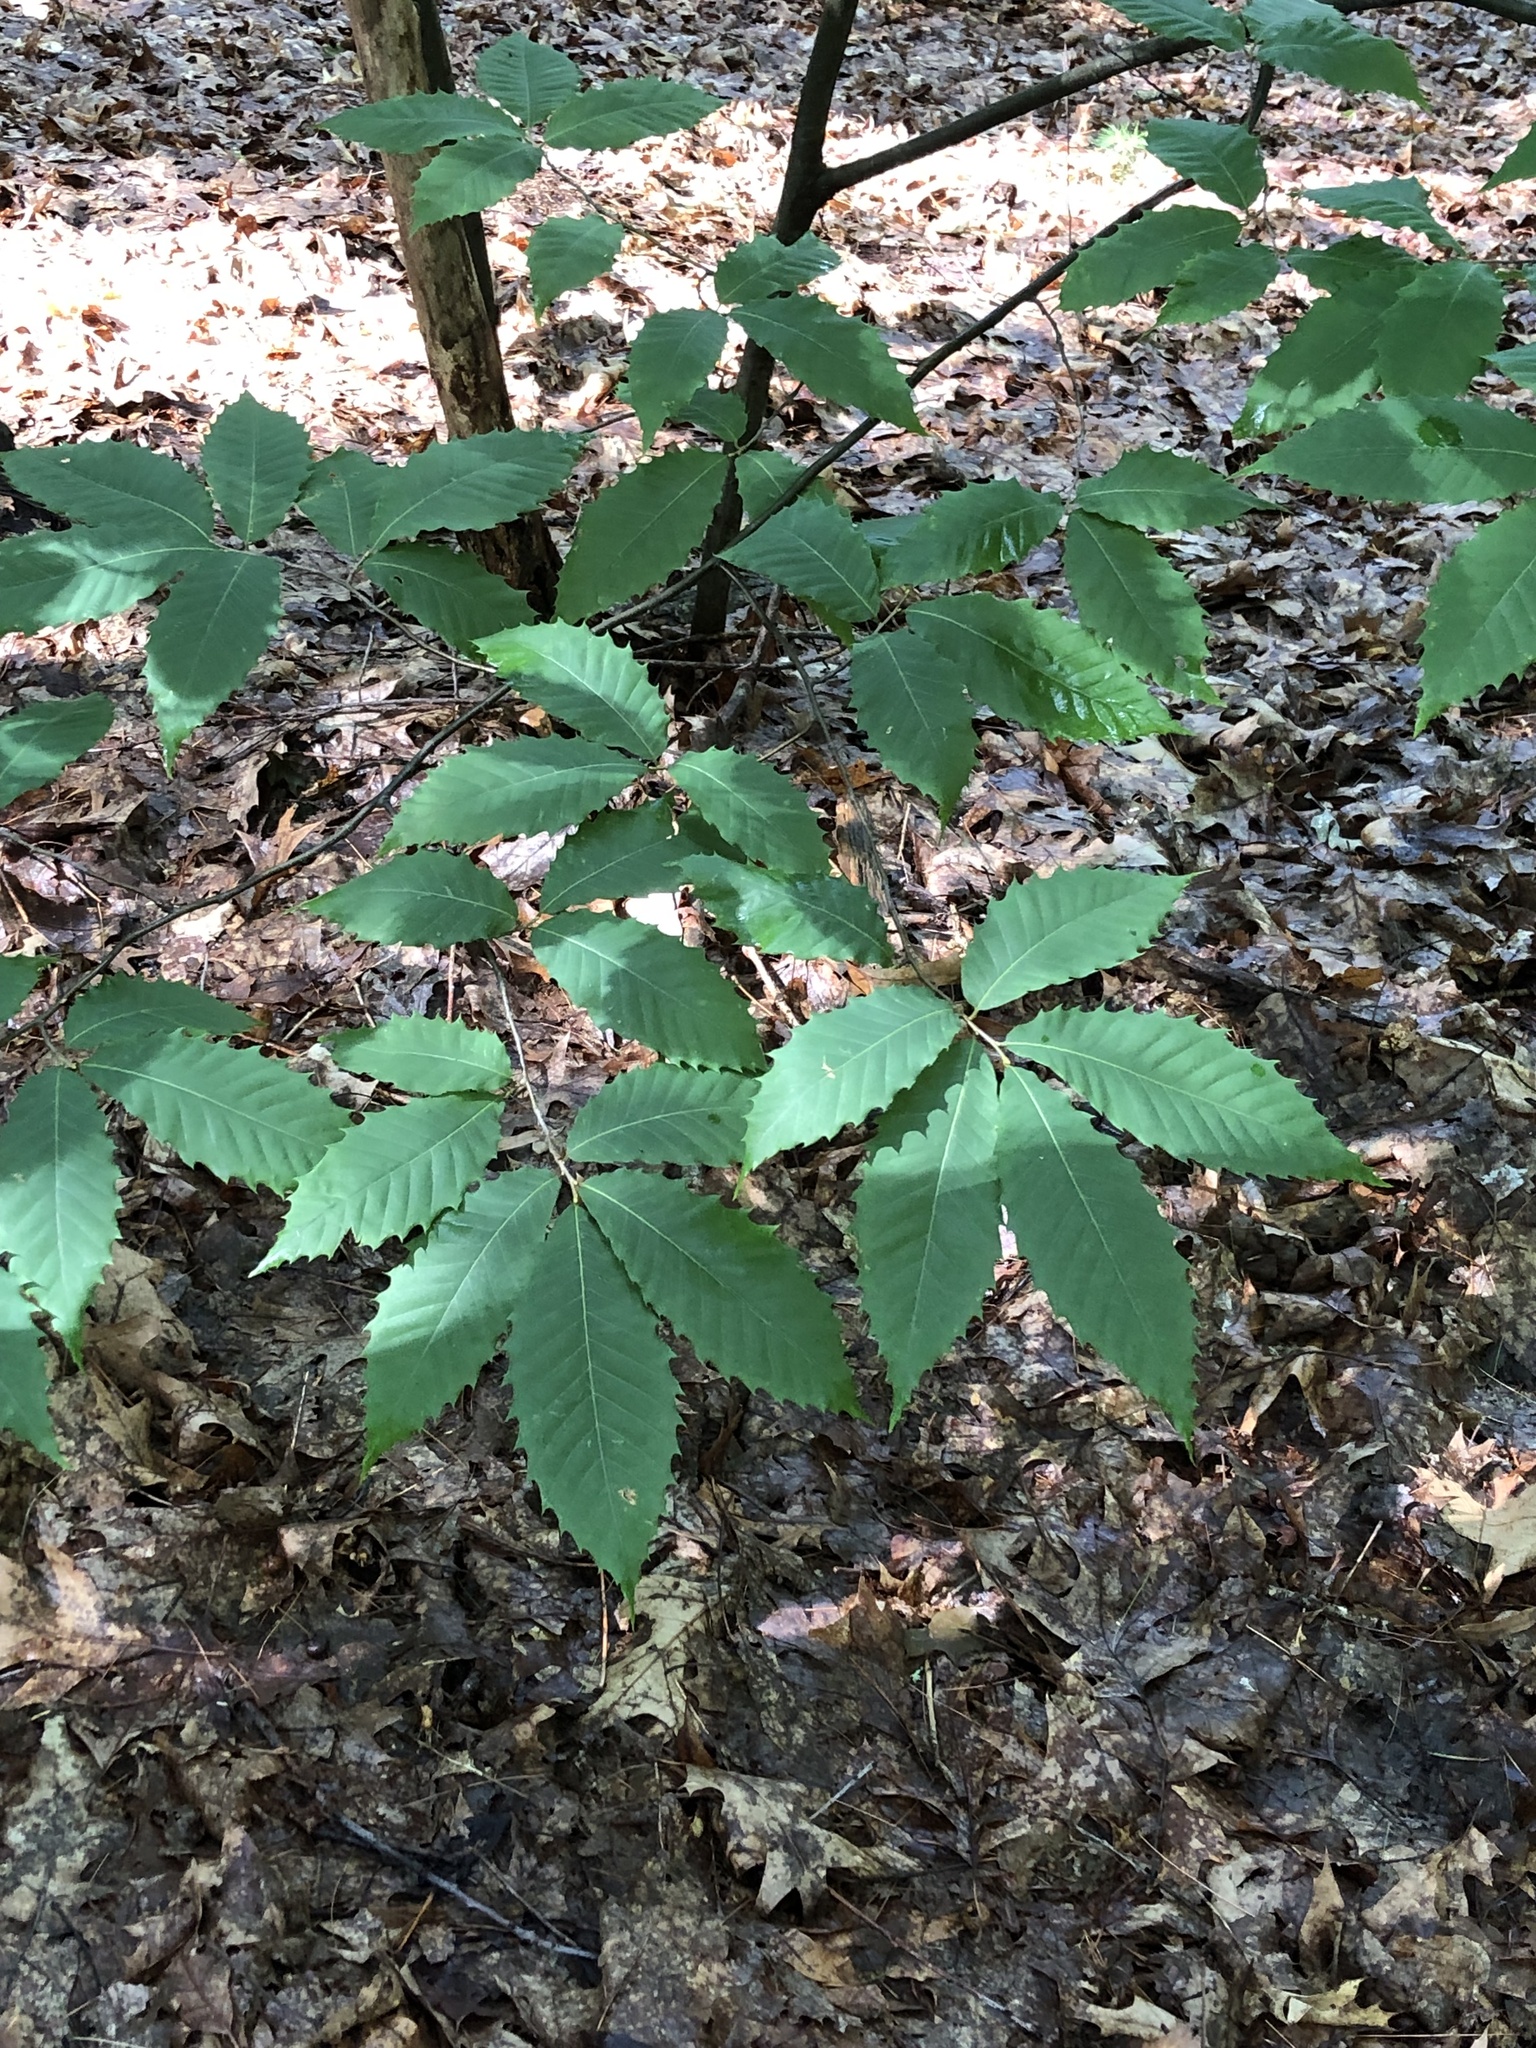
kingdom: Plantae
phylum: Tracheophyta
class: Magnoliopsida
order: Fagales
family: Fagaceae
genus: Castanea
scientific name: Castanea dentata
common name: American chestnut
